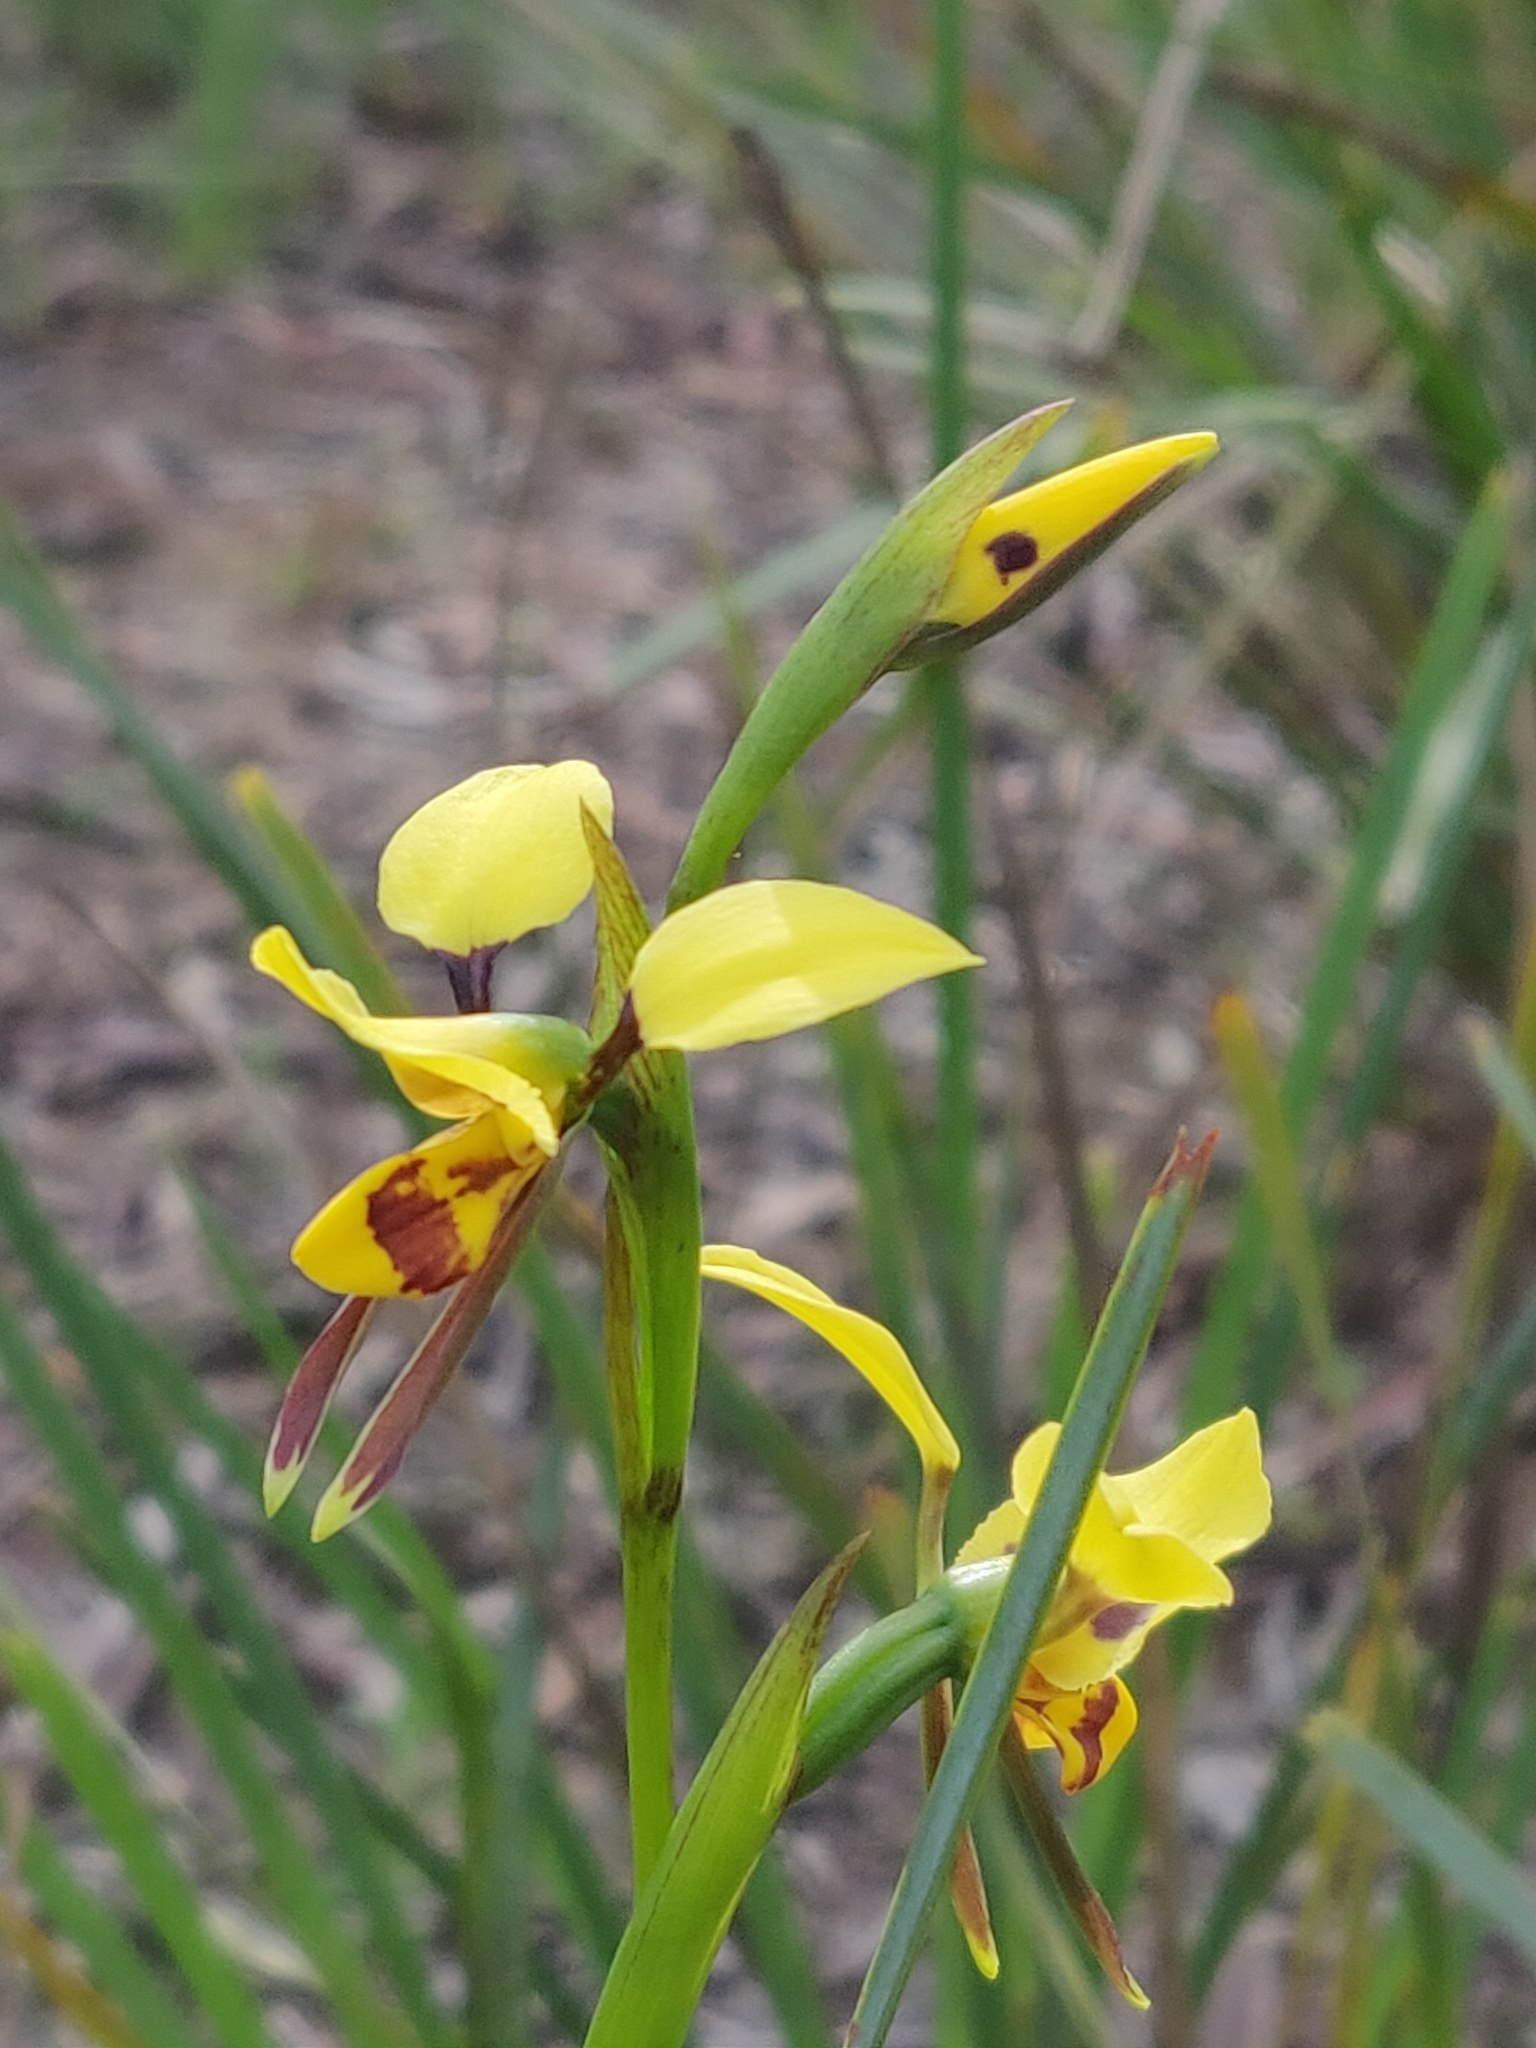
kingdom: Plantae
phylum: Tracheophyta
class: Liliopsida
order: Asparagales
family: Orchidaceae
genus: Diuris
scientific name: Diuris sulphurea
